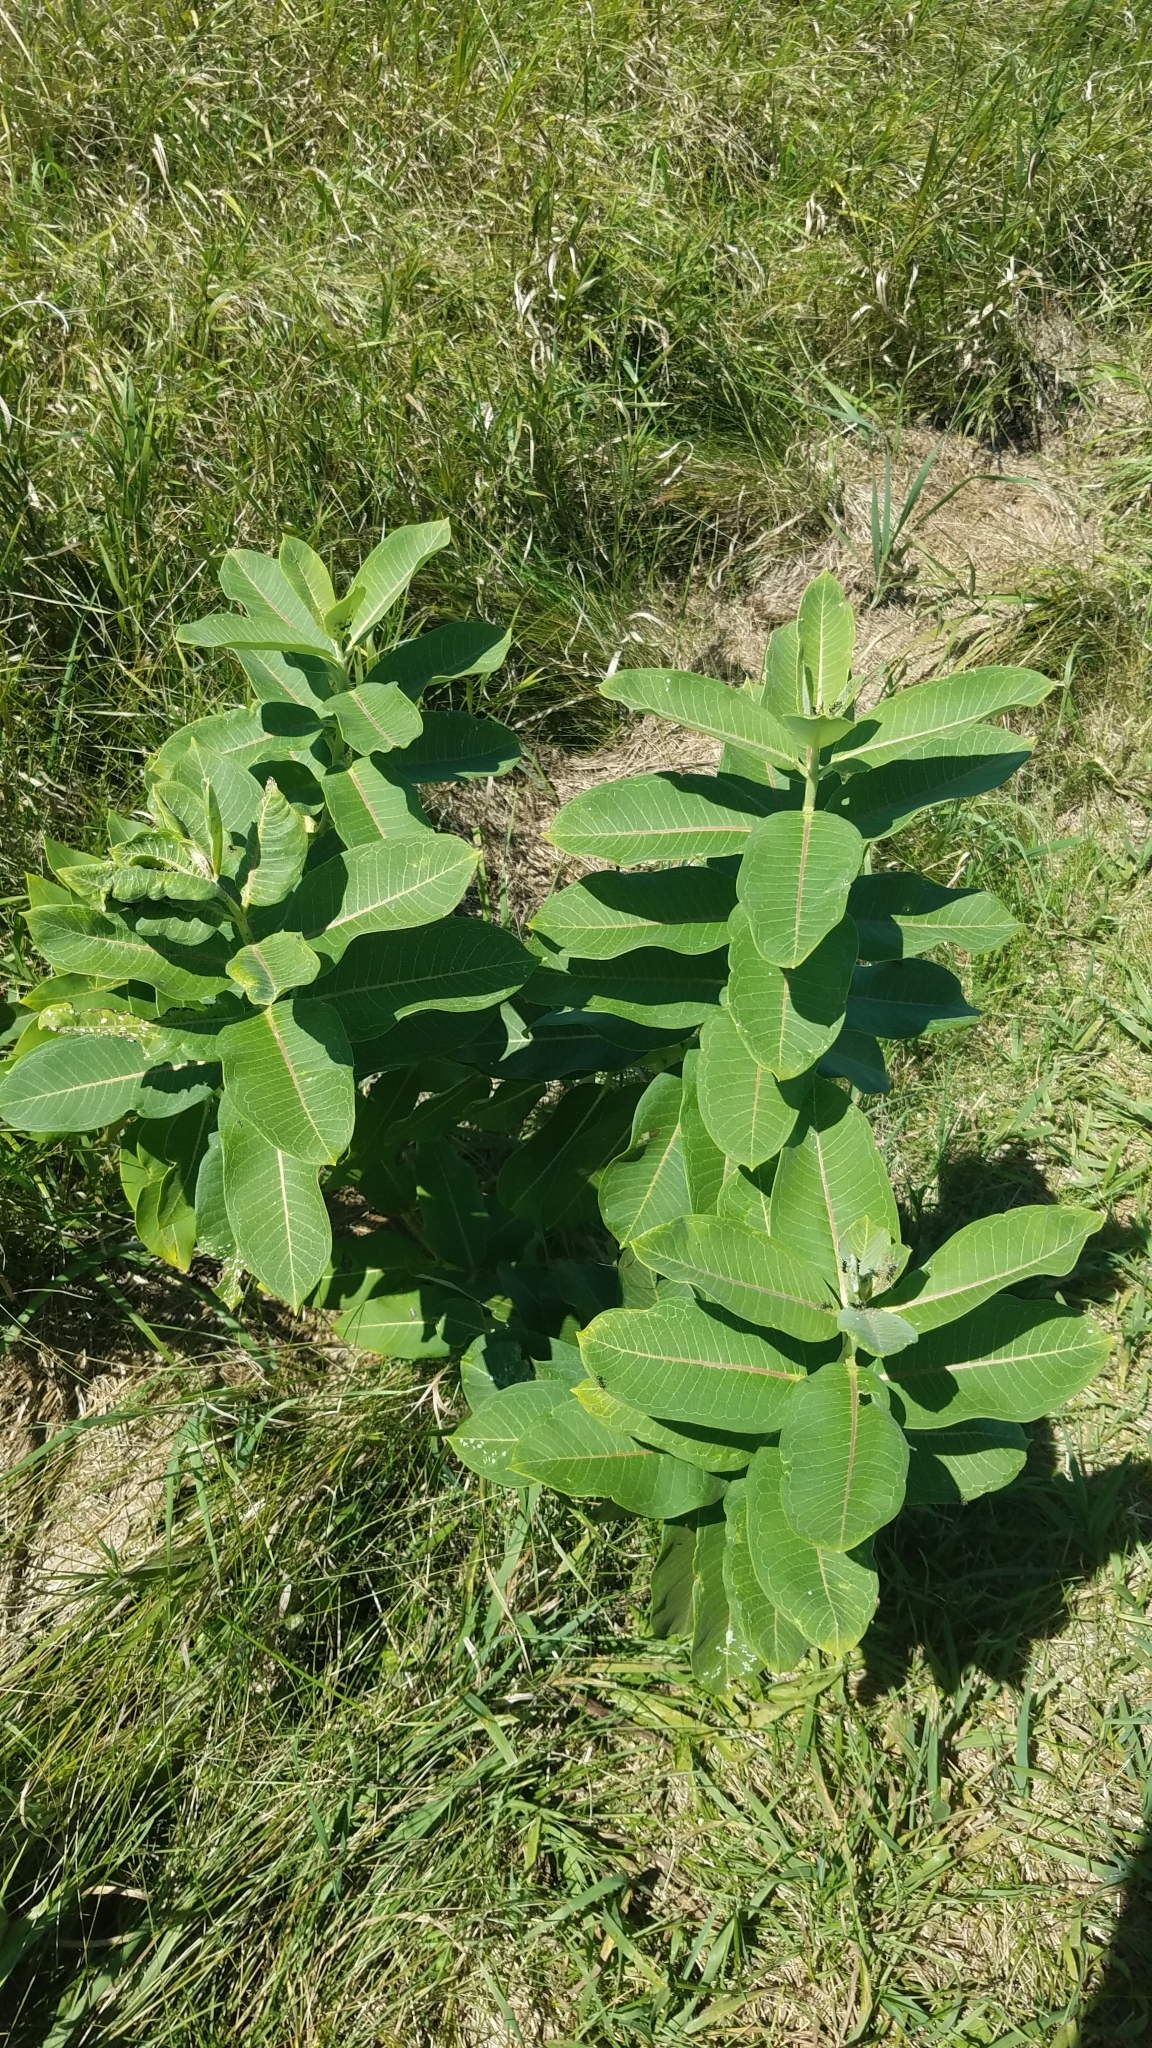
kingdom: Plantae
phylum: Tracheophyta
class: Magnoliopsida
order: Gentianales
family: Apocynaceae
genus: Asclepias
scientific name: Asclepias syriaca
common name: Common milkweed
